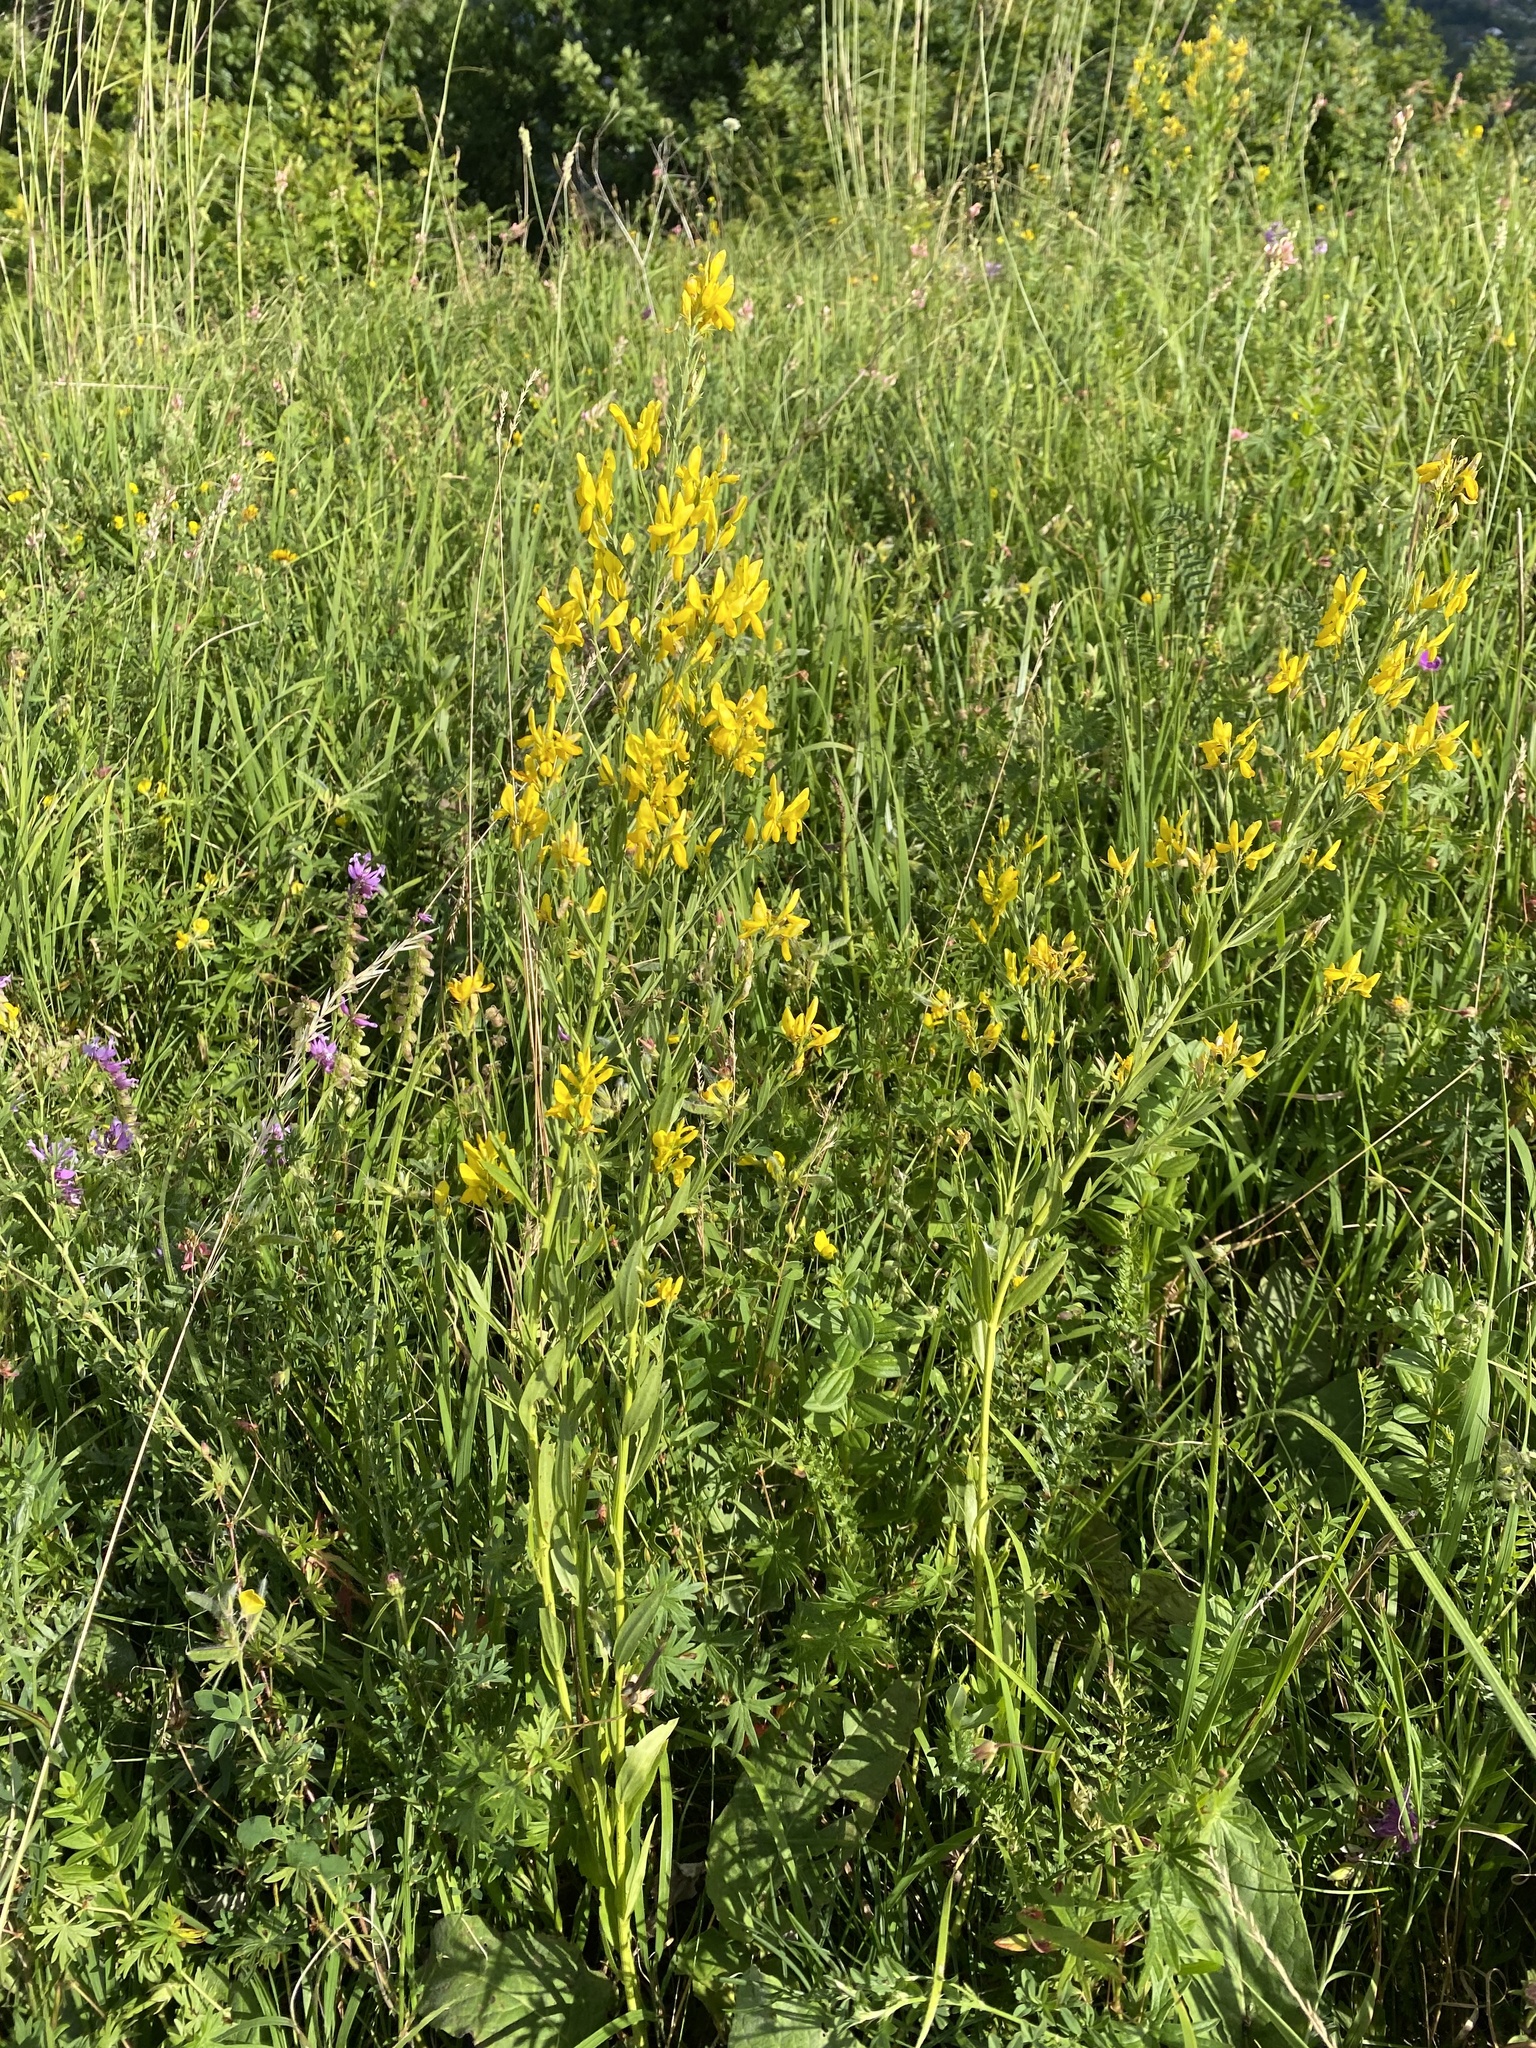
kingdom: Plantae
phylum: Tracheophyta
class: Magnoliopsida
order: Fabales
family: Fabaceae
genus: Genista
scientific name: Genista tinctoria
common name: Dyer's greenweed
